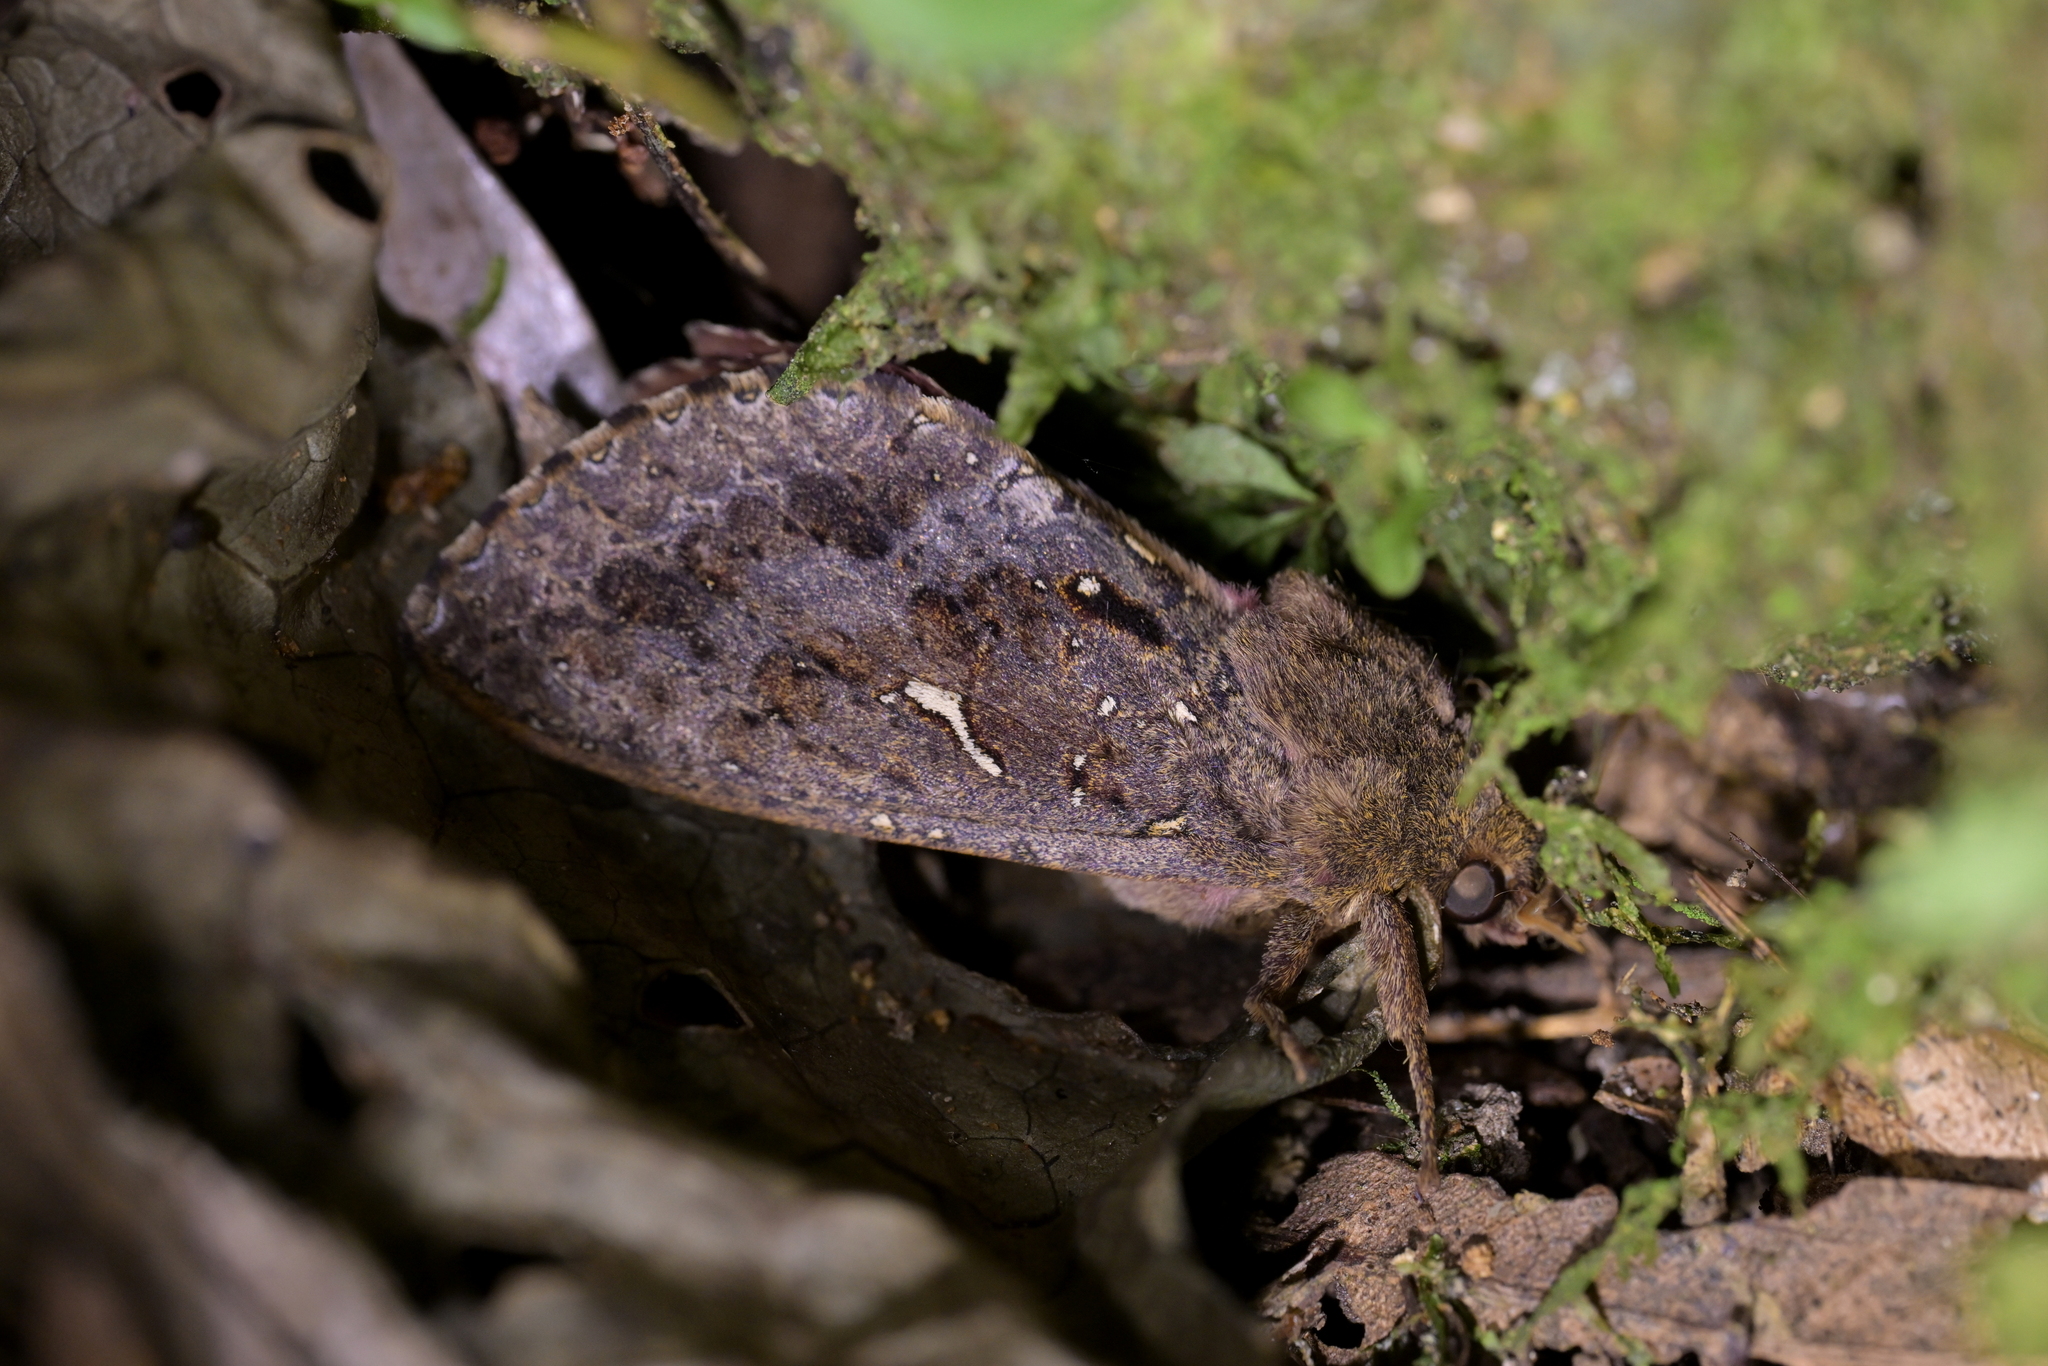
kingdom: Animalia
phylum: Arthropoda
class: Insecta
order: Lepidoptera
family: Hepialidae
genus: Dumbletonius
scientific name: Dumbletonius unimaculata
